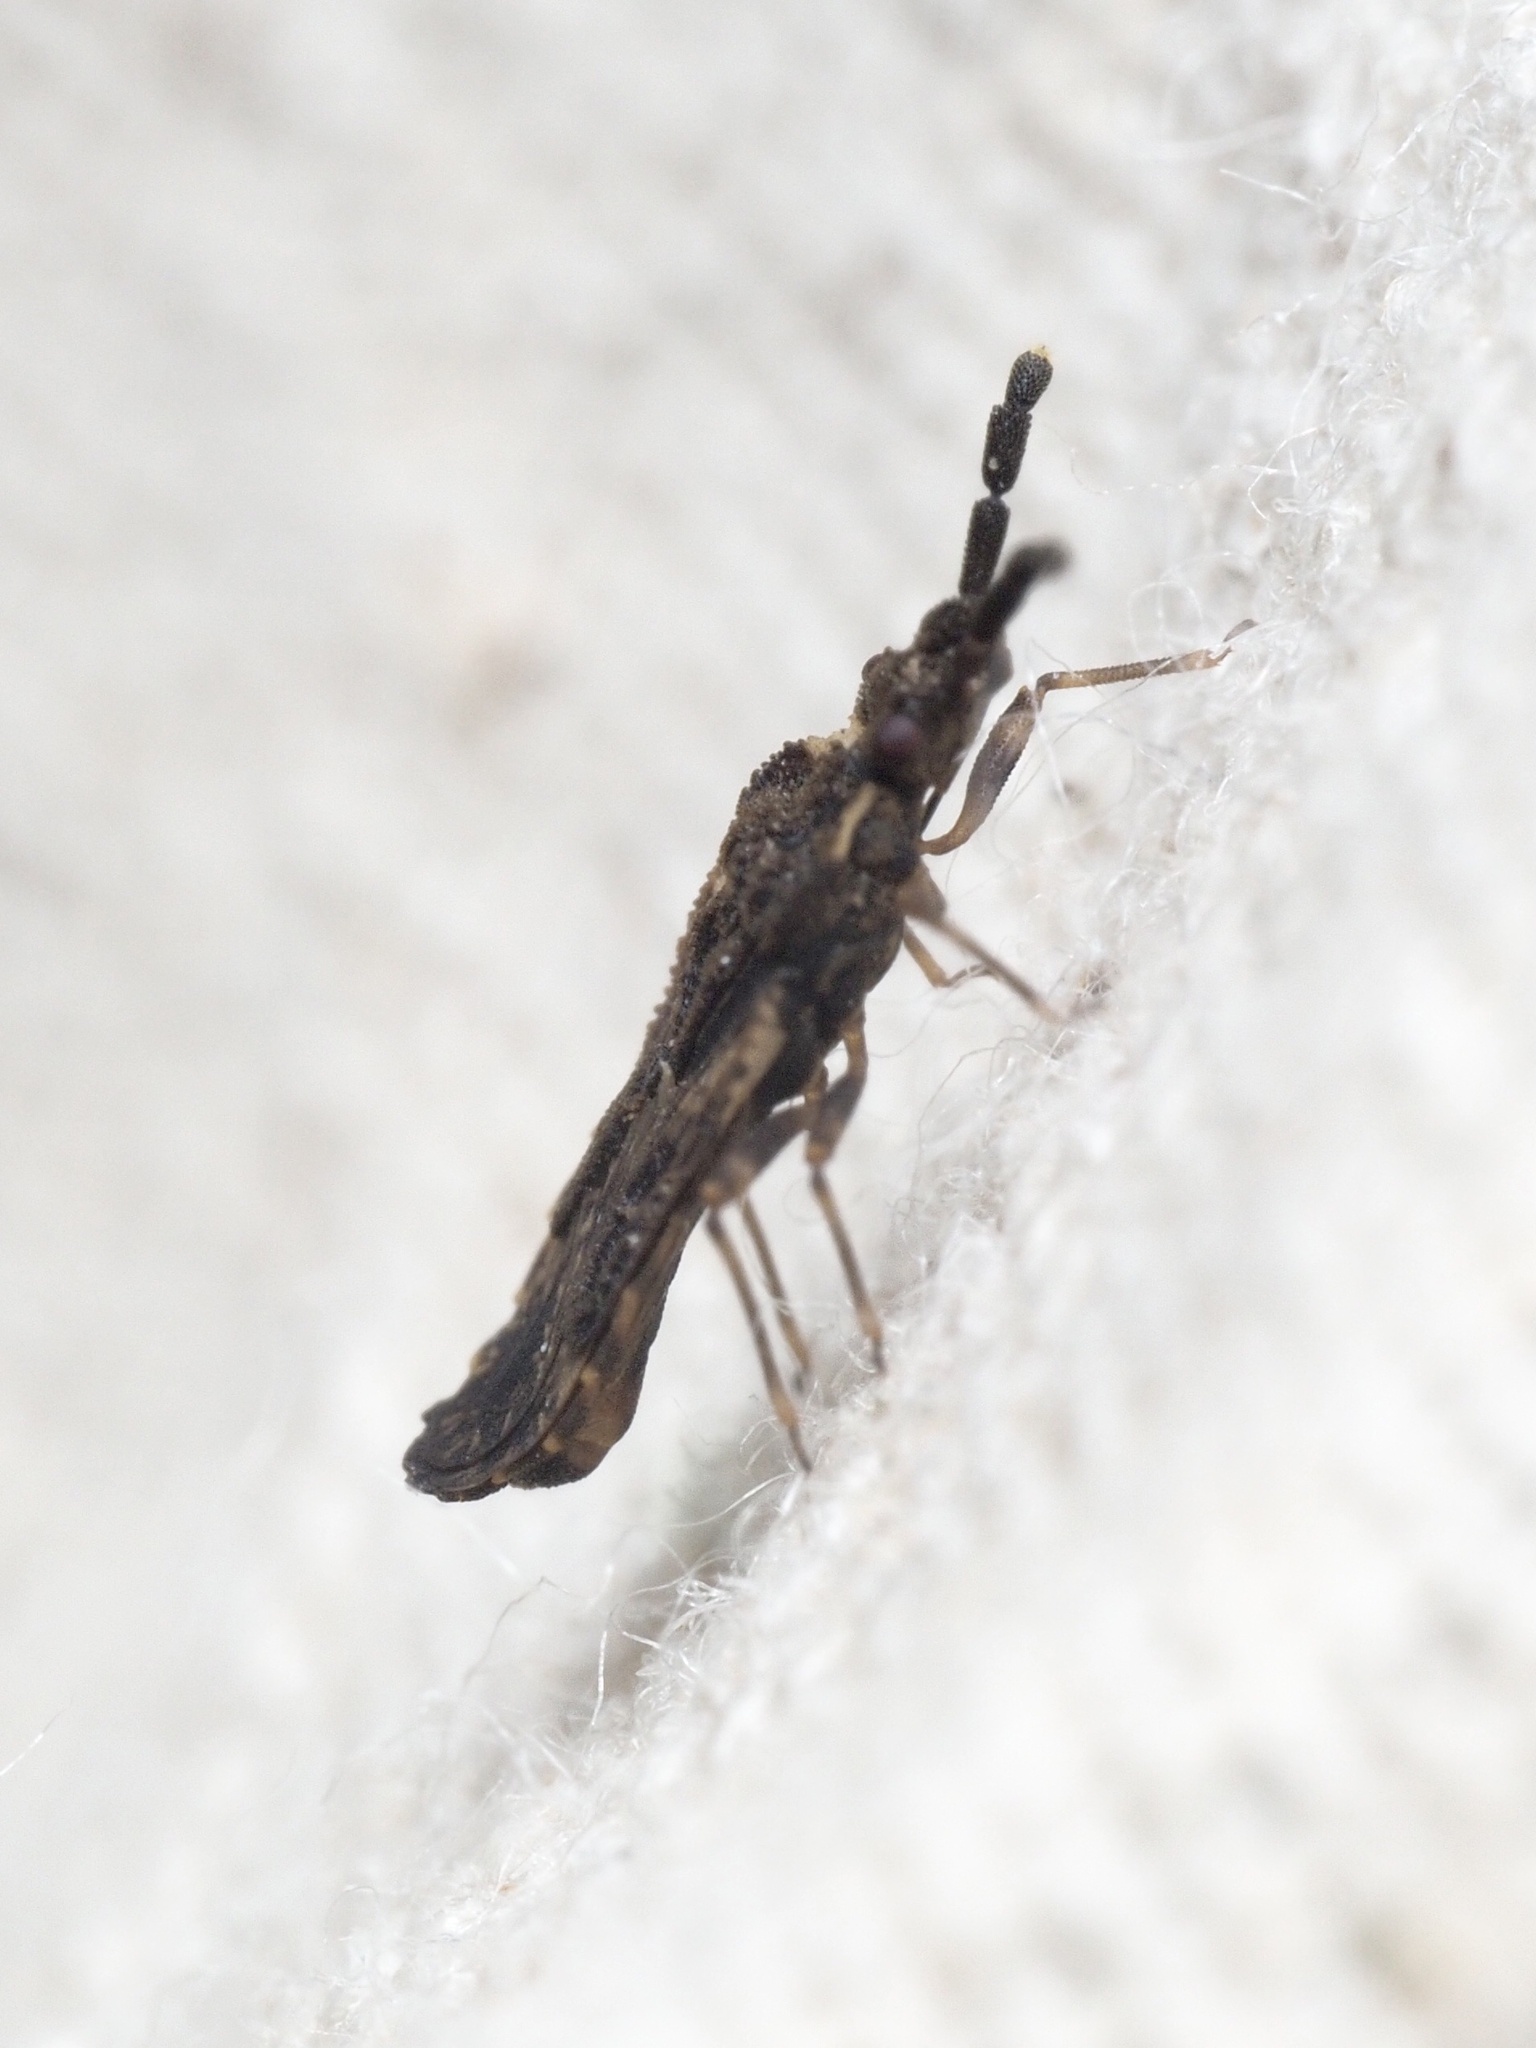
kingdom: Animalia
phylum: Arthropoda
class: Insecta
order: Hemiptera
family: Aradidae
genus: Aradus
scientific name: Aradus depressus
